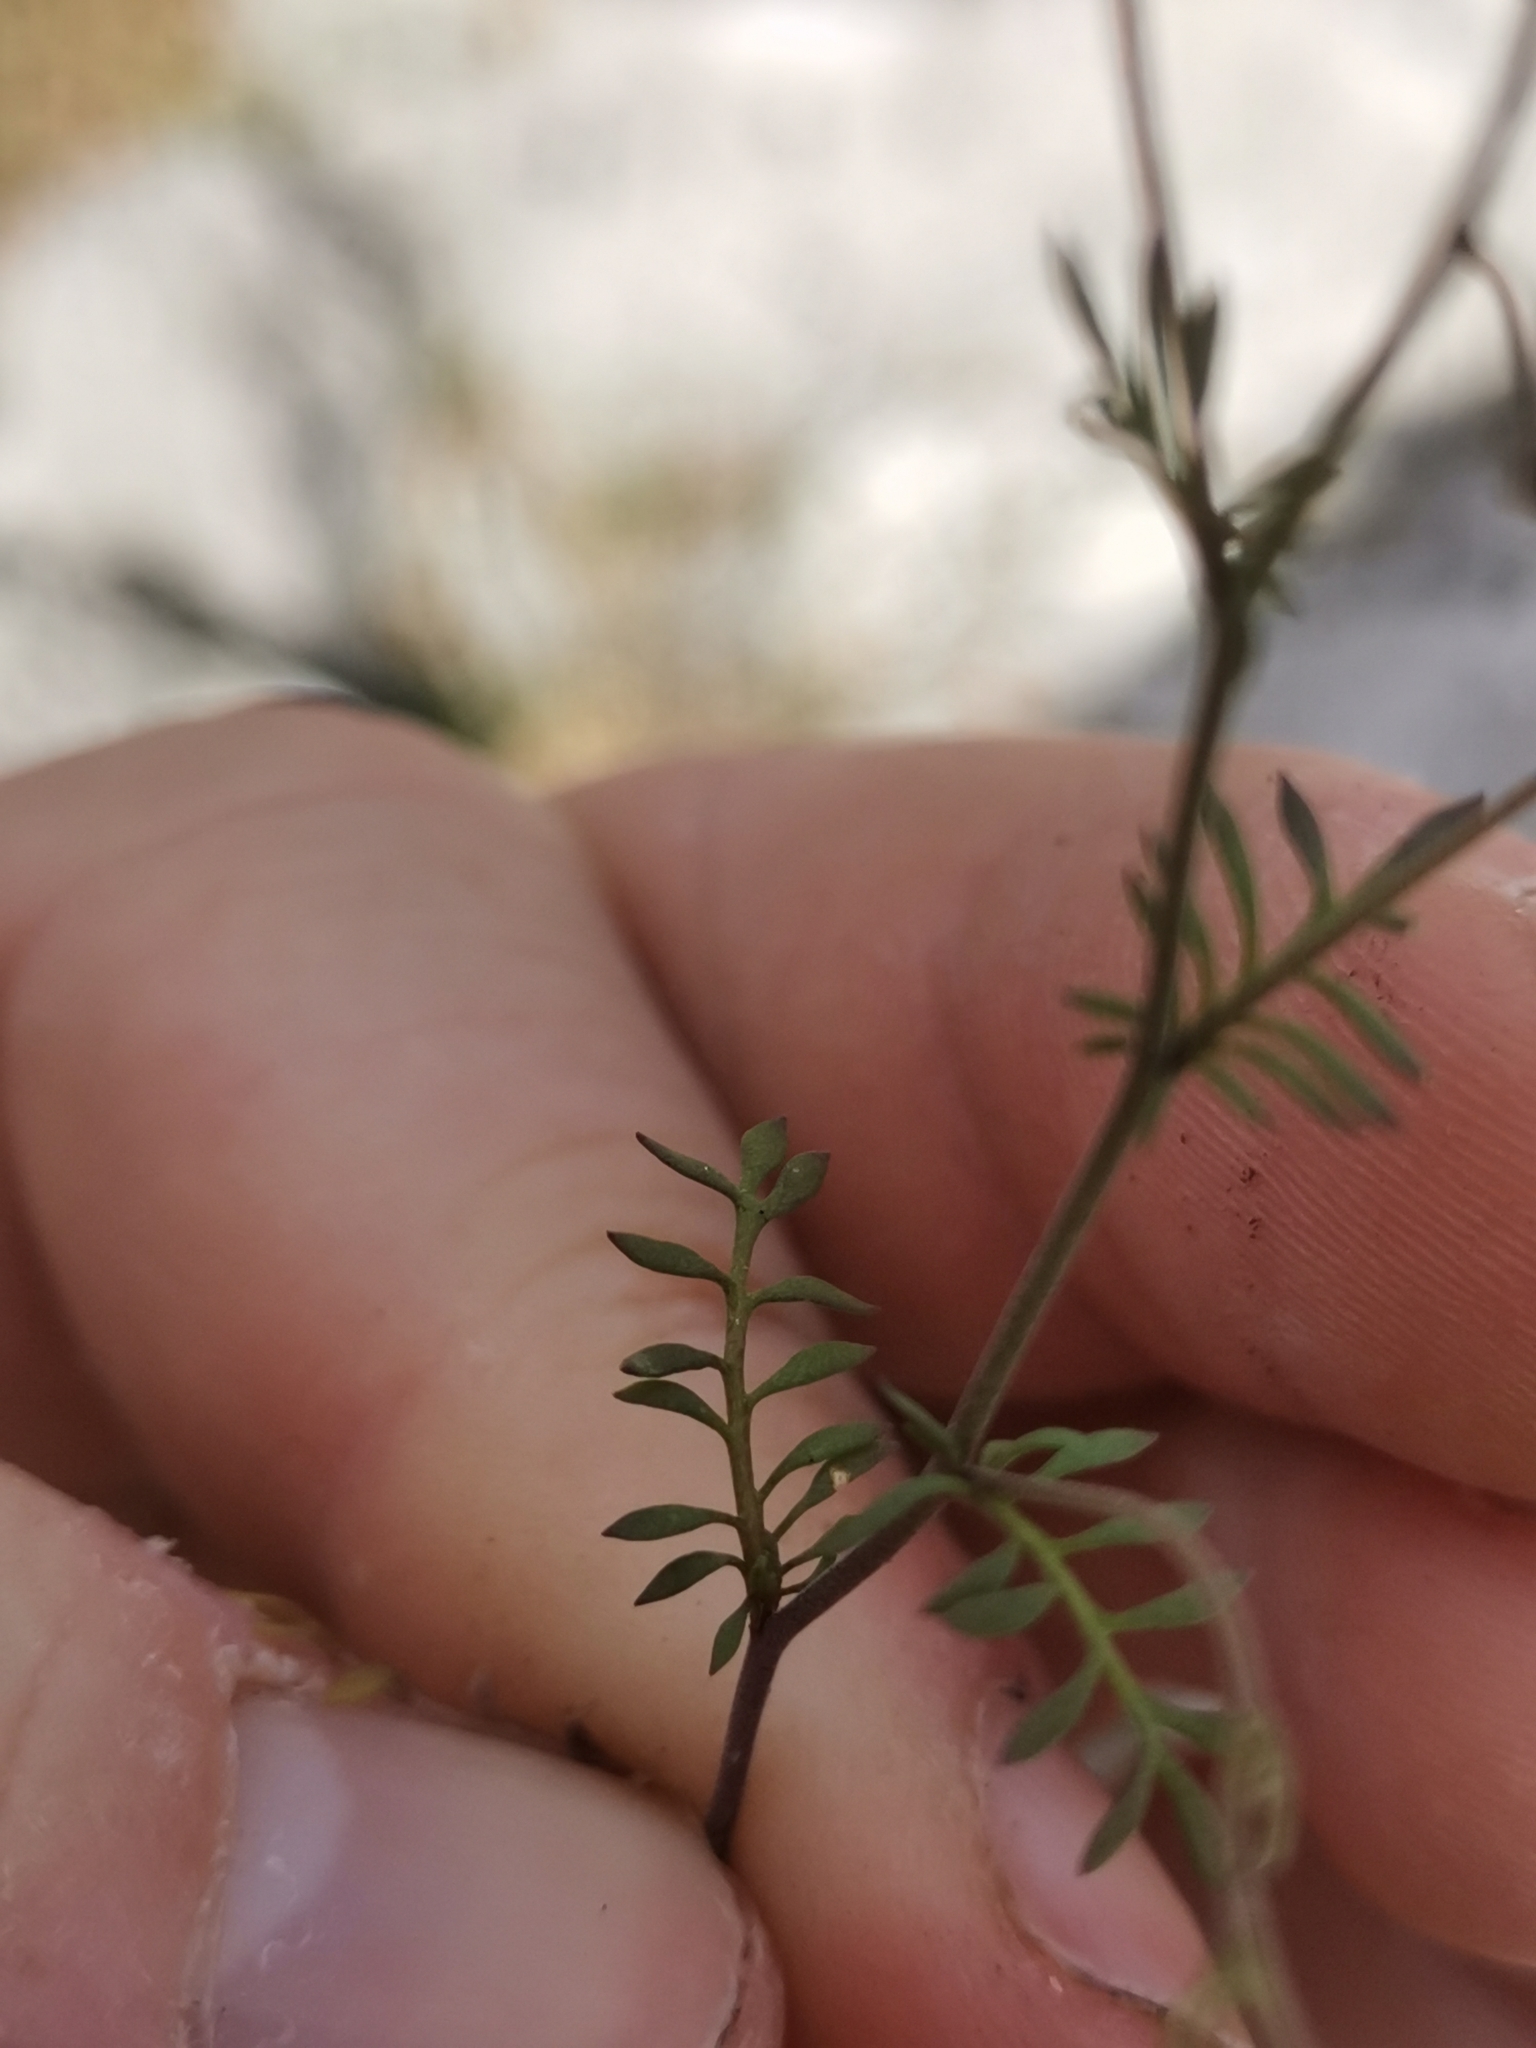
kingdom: Plantae
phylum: Tracheophyta
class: Magnoliopsida
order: Brassicales
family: Brassicaceae
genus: Hornungia
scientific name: Hornungia petraea
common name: Hutchinsia
